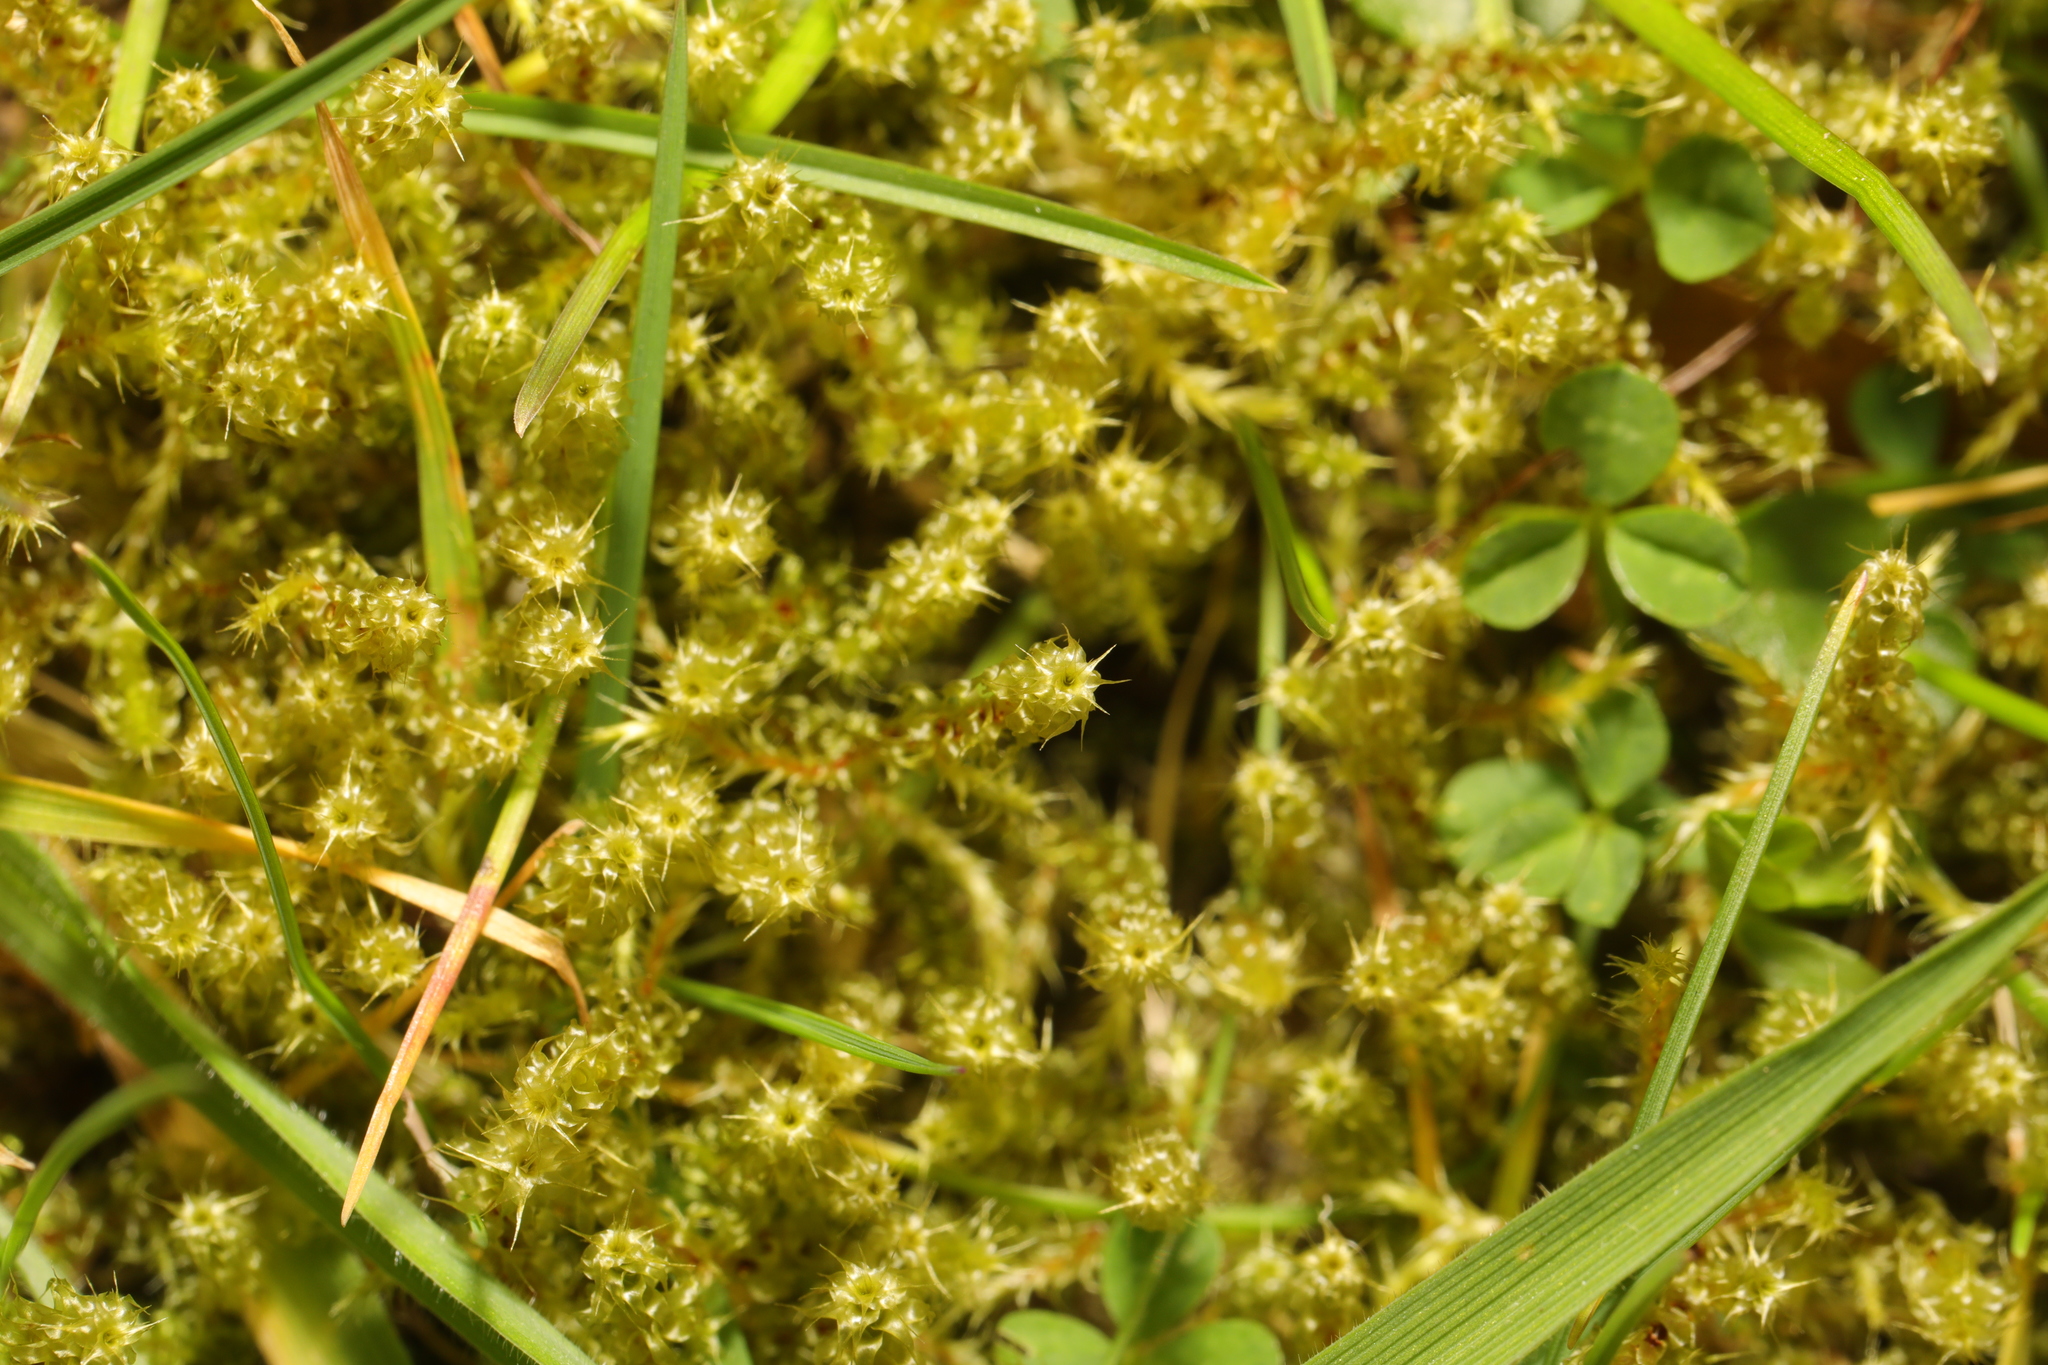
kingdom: Plantae
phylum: Bryophyta
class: Bryopsida
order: Hypnales
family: Hylocomiaceae
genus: Rhytidiadelphus
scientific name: Rhytidiadelphus squarrosus
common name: Springy turf-moss
